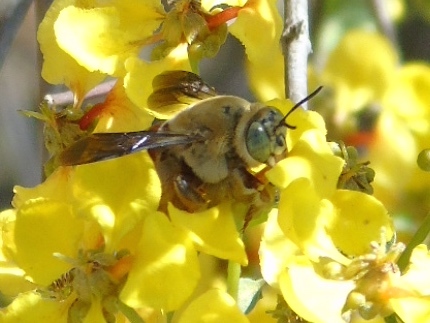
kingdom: Animalia
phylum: Arthropoda
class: Insecta
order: Hymenoptera
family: Apidae
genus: Centris
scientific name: Centris eurypatana
